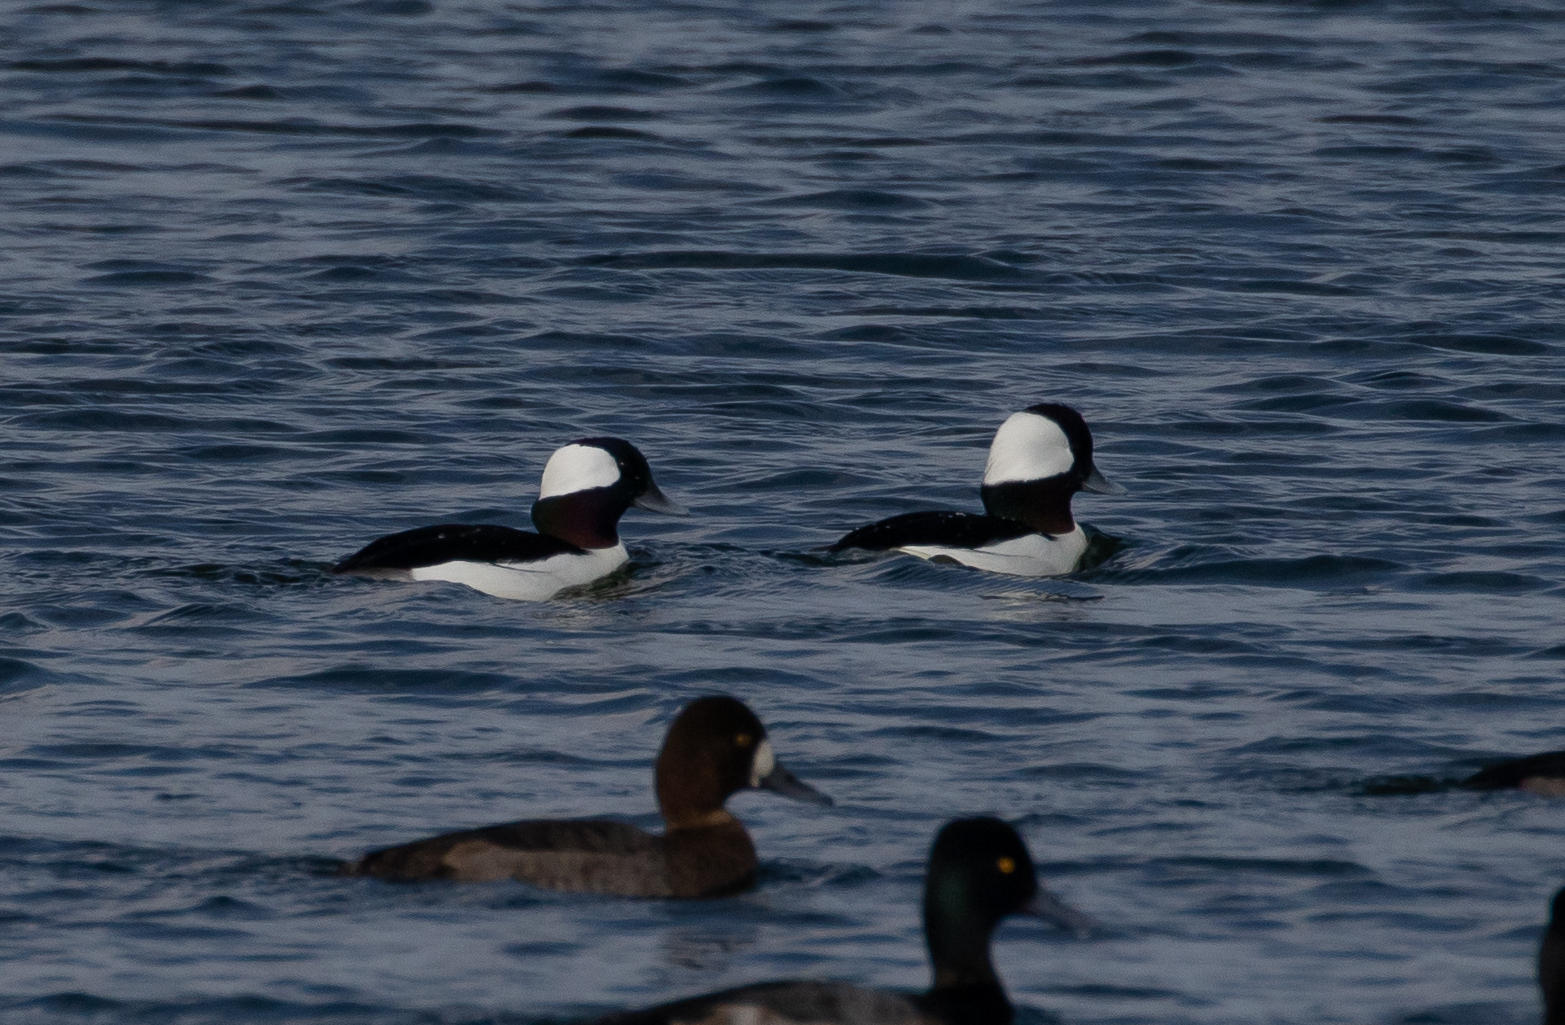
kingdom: Animalia
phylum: Chordata
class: Aves
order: Anseriformes
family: Anatidae
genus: Bucephala
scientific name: Bucephala albeola
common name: Bufflehead
